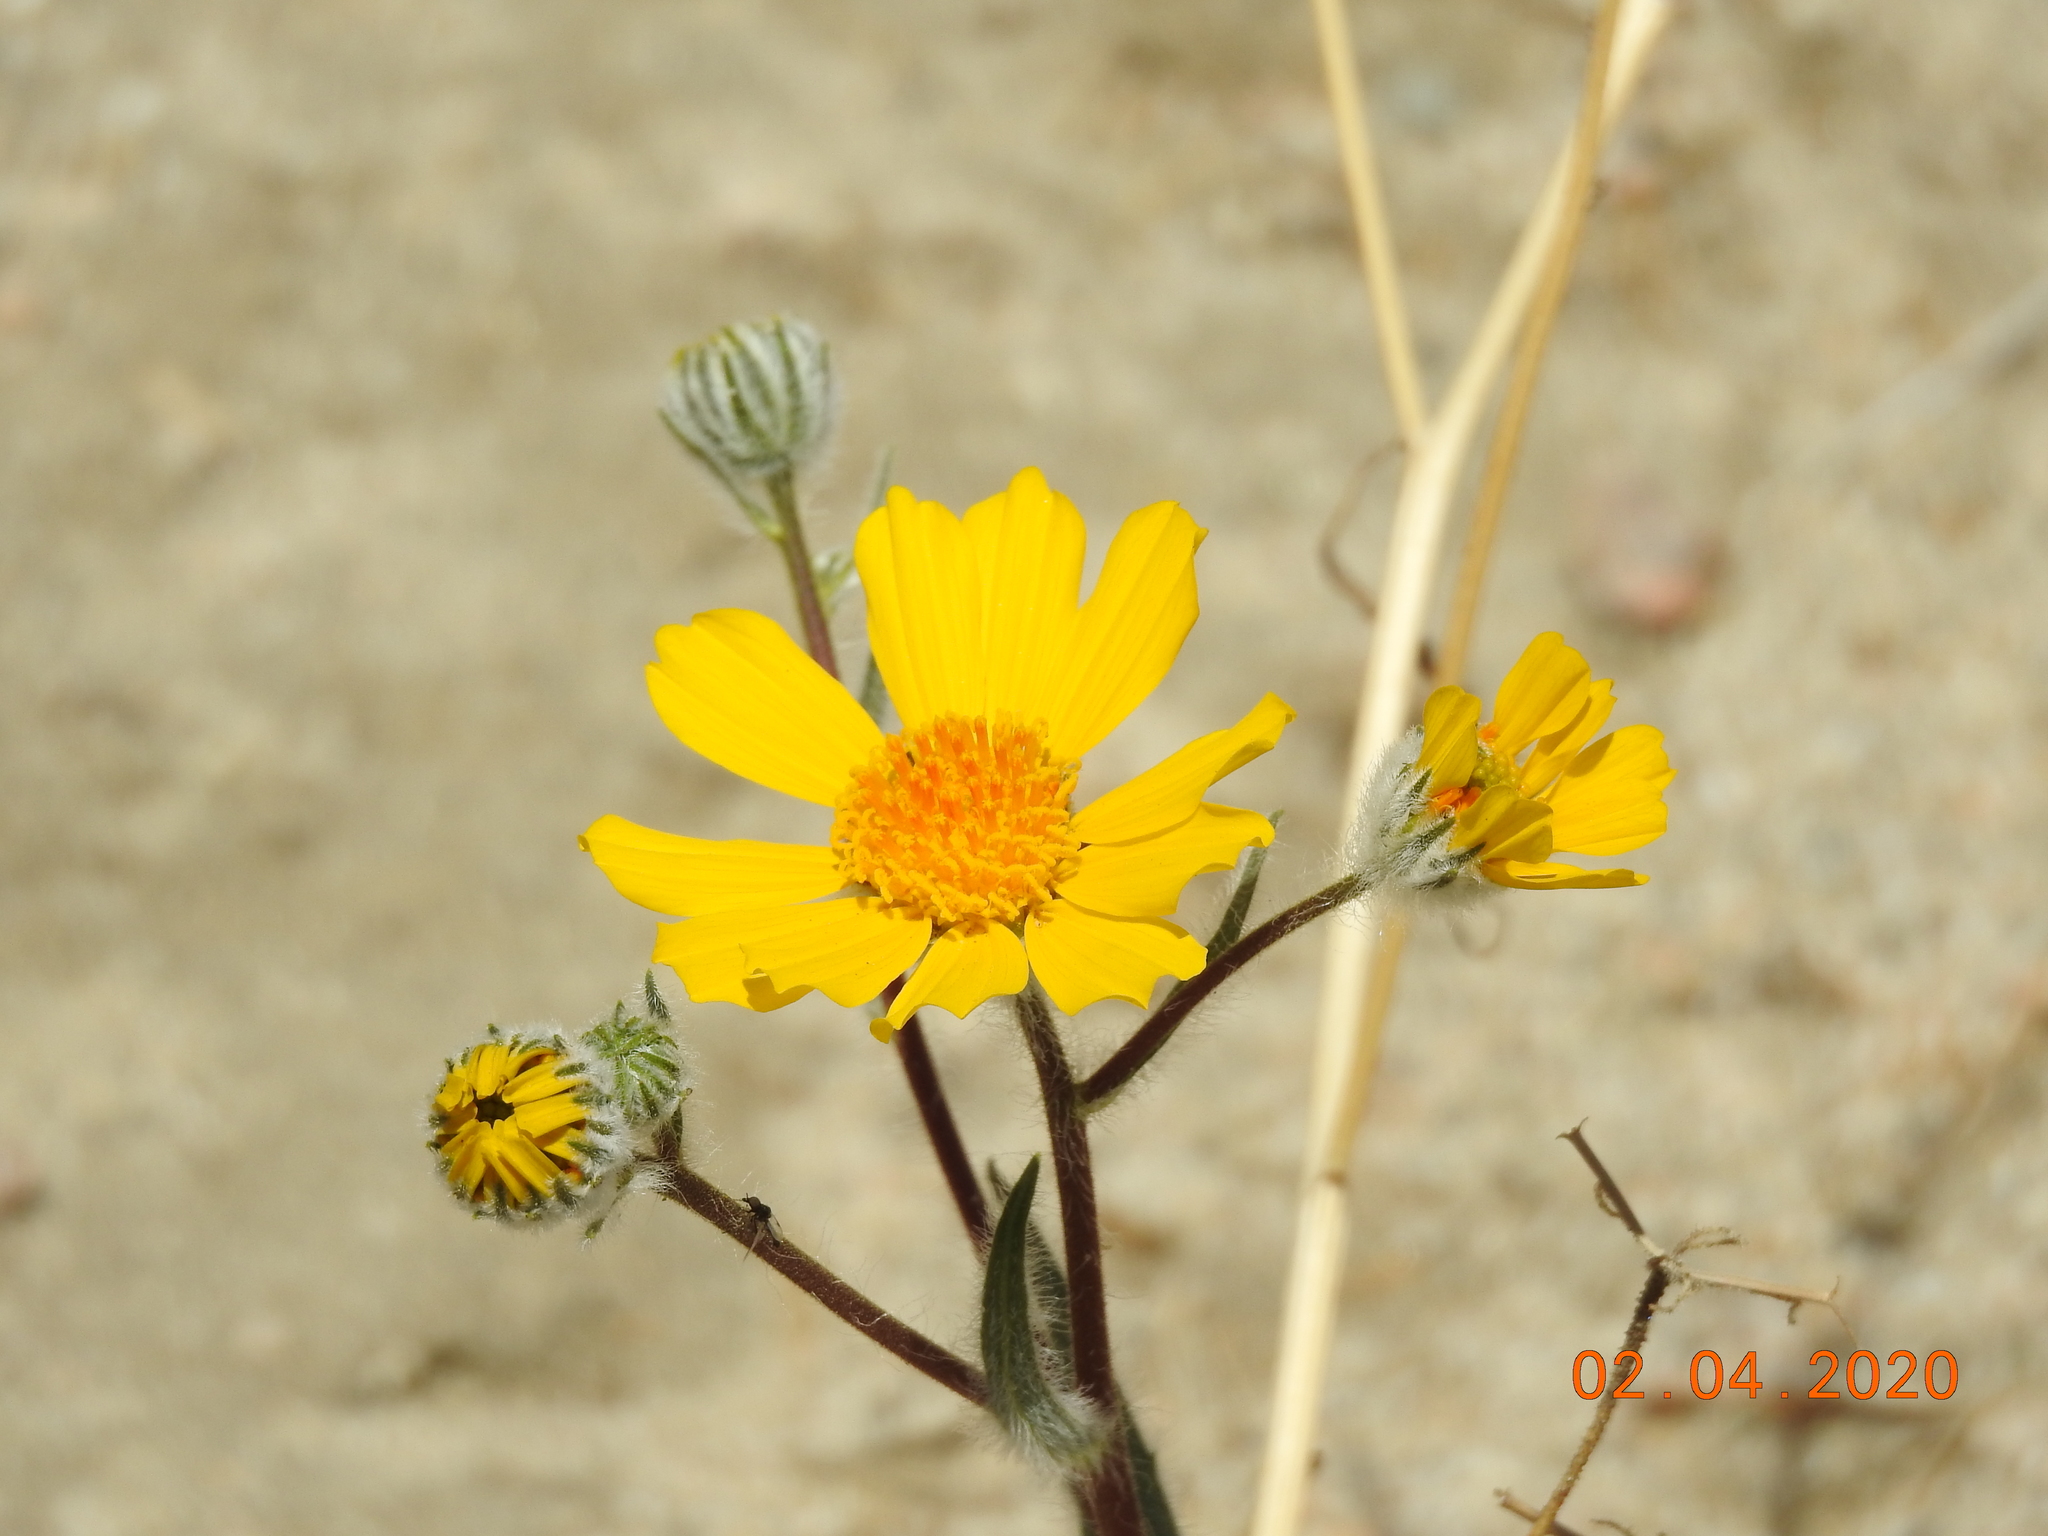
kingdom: Plantae
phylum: Tracheophyta
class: Magnoliopsida
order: Asterales
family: Asteraceae
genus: Geraea
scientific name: Geraea canescens
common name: Desert-gold
